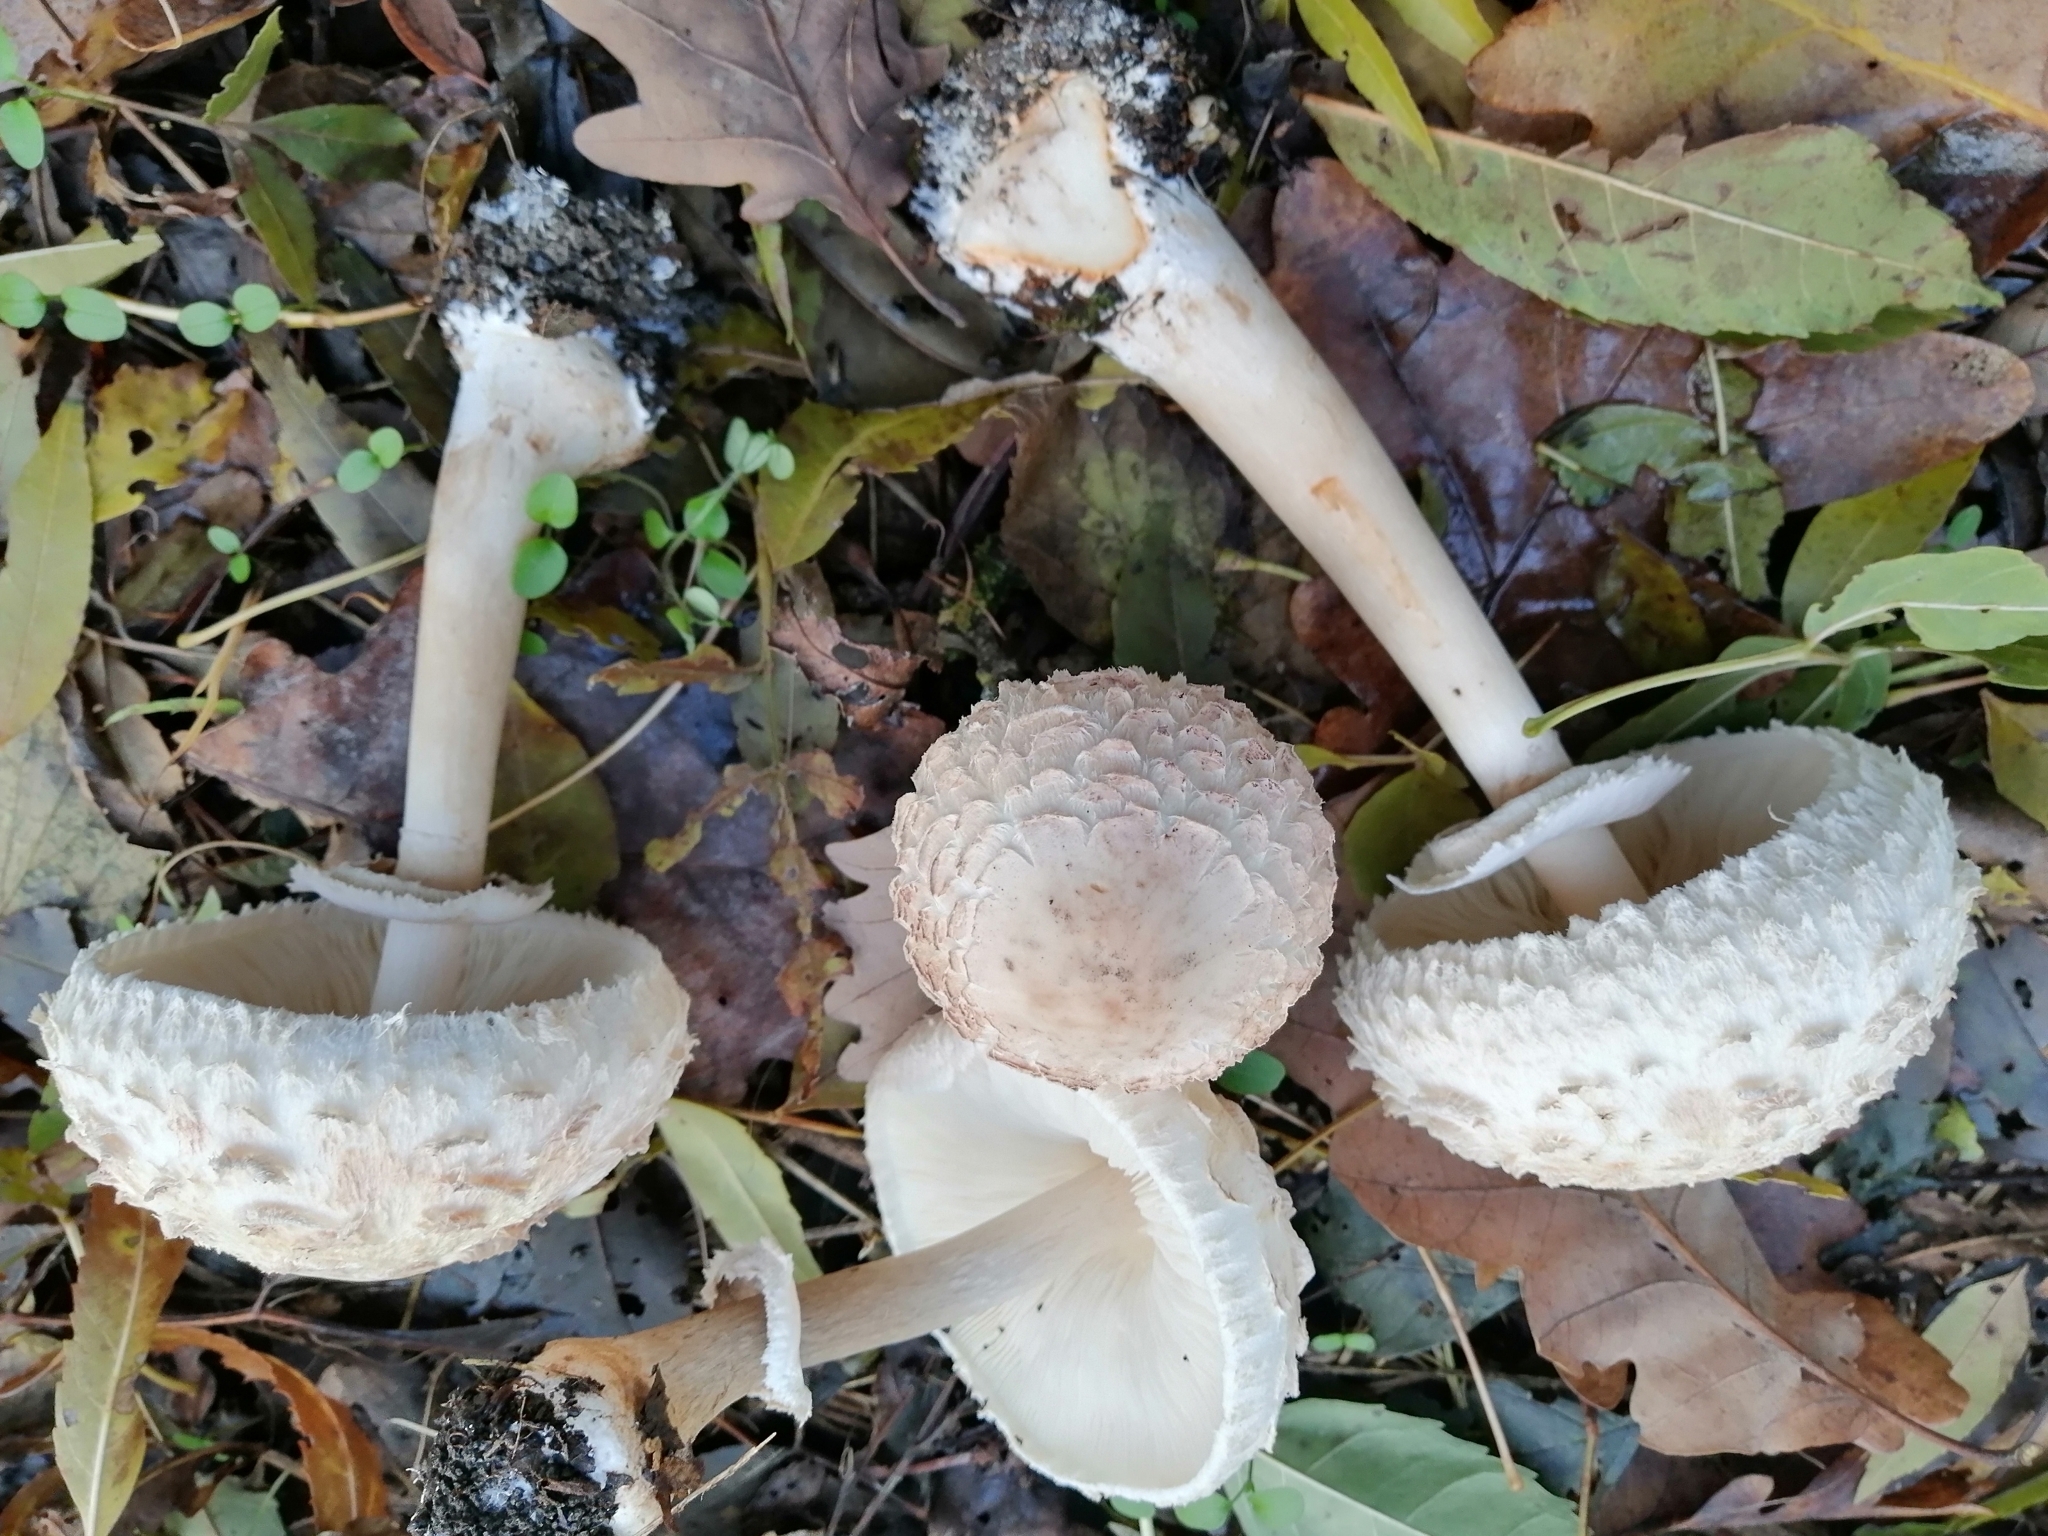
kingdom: Fungi
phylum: Basidiomycota
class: Agaricomycetes
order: Agaricales
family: Agaricaceae
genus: Chlorophyllum
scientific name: Chlorophyllum rhacodes
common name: Shaggy parasol
